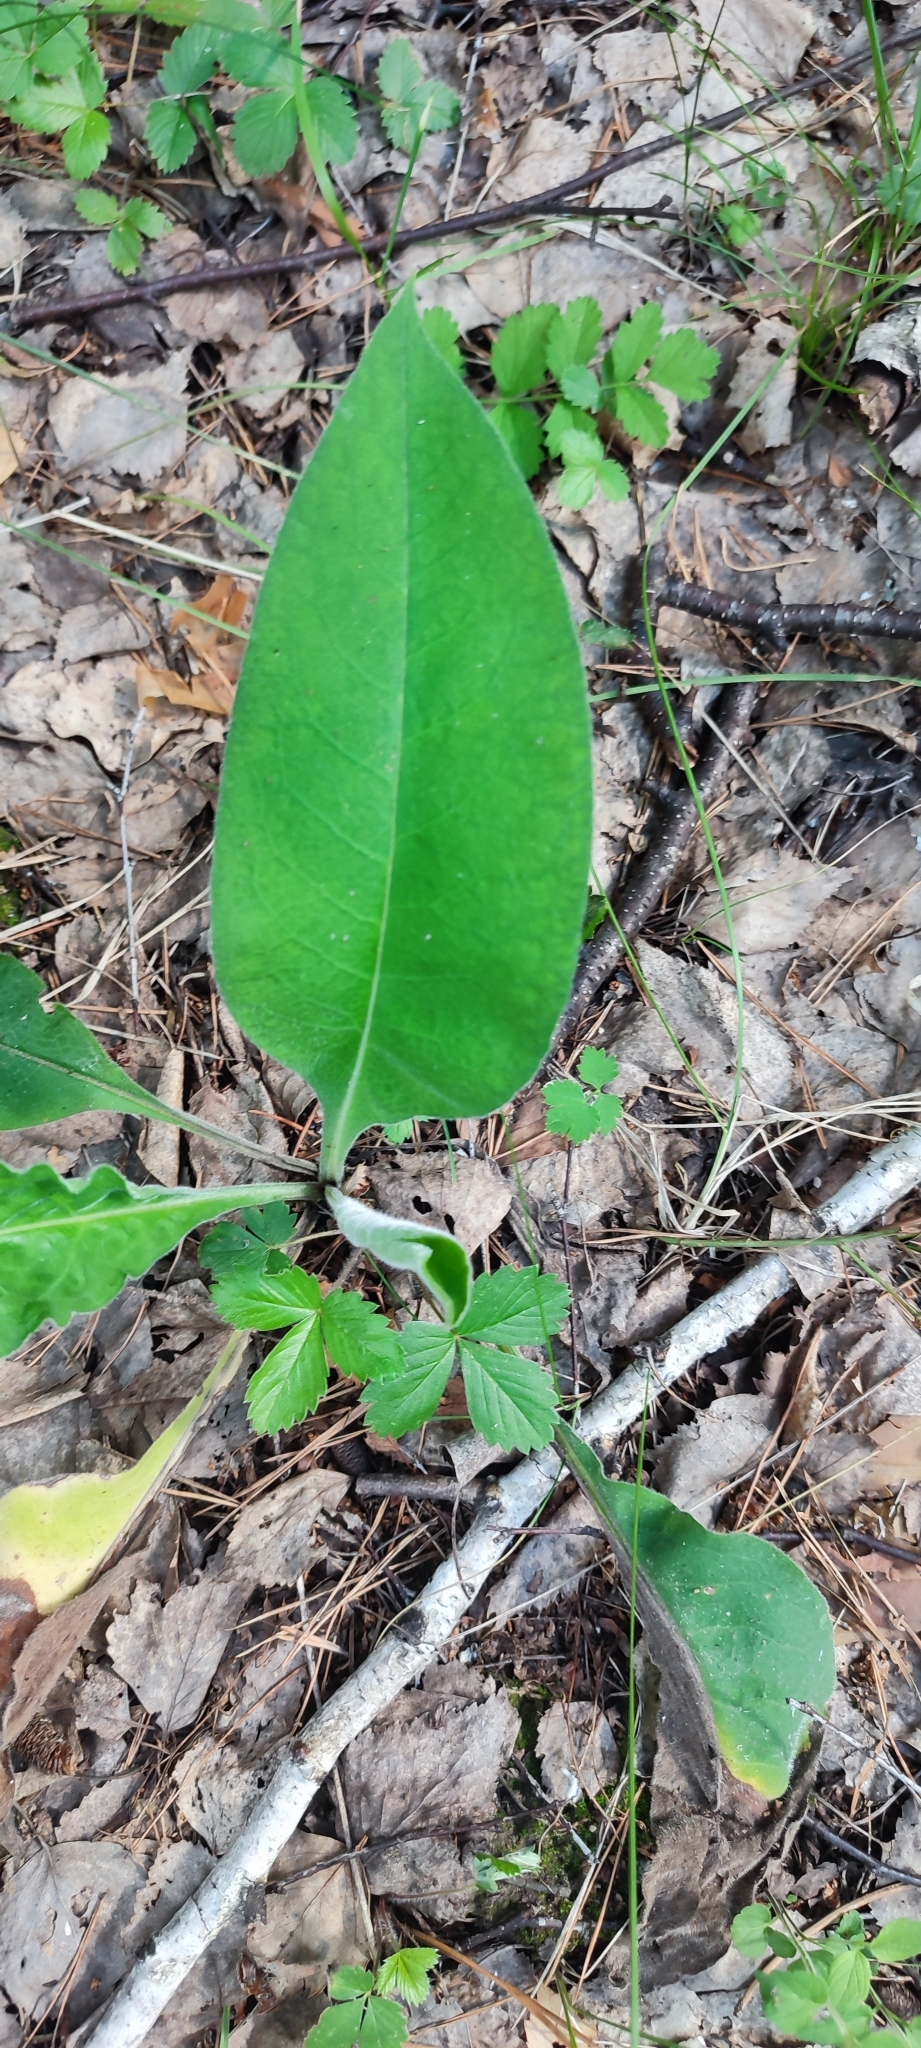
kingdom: Plantae
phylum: Tracheophyta
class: Magnoliopsida
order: Boraginales
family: Boraginaceae
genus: Pulmonaria
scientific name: Pulmonaria mollis
